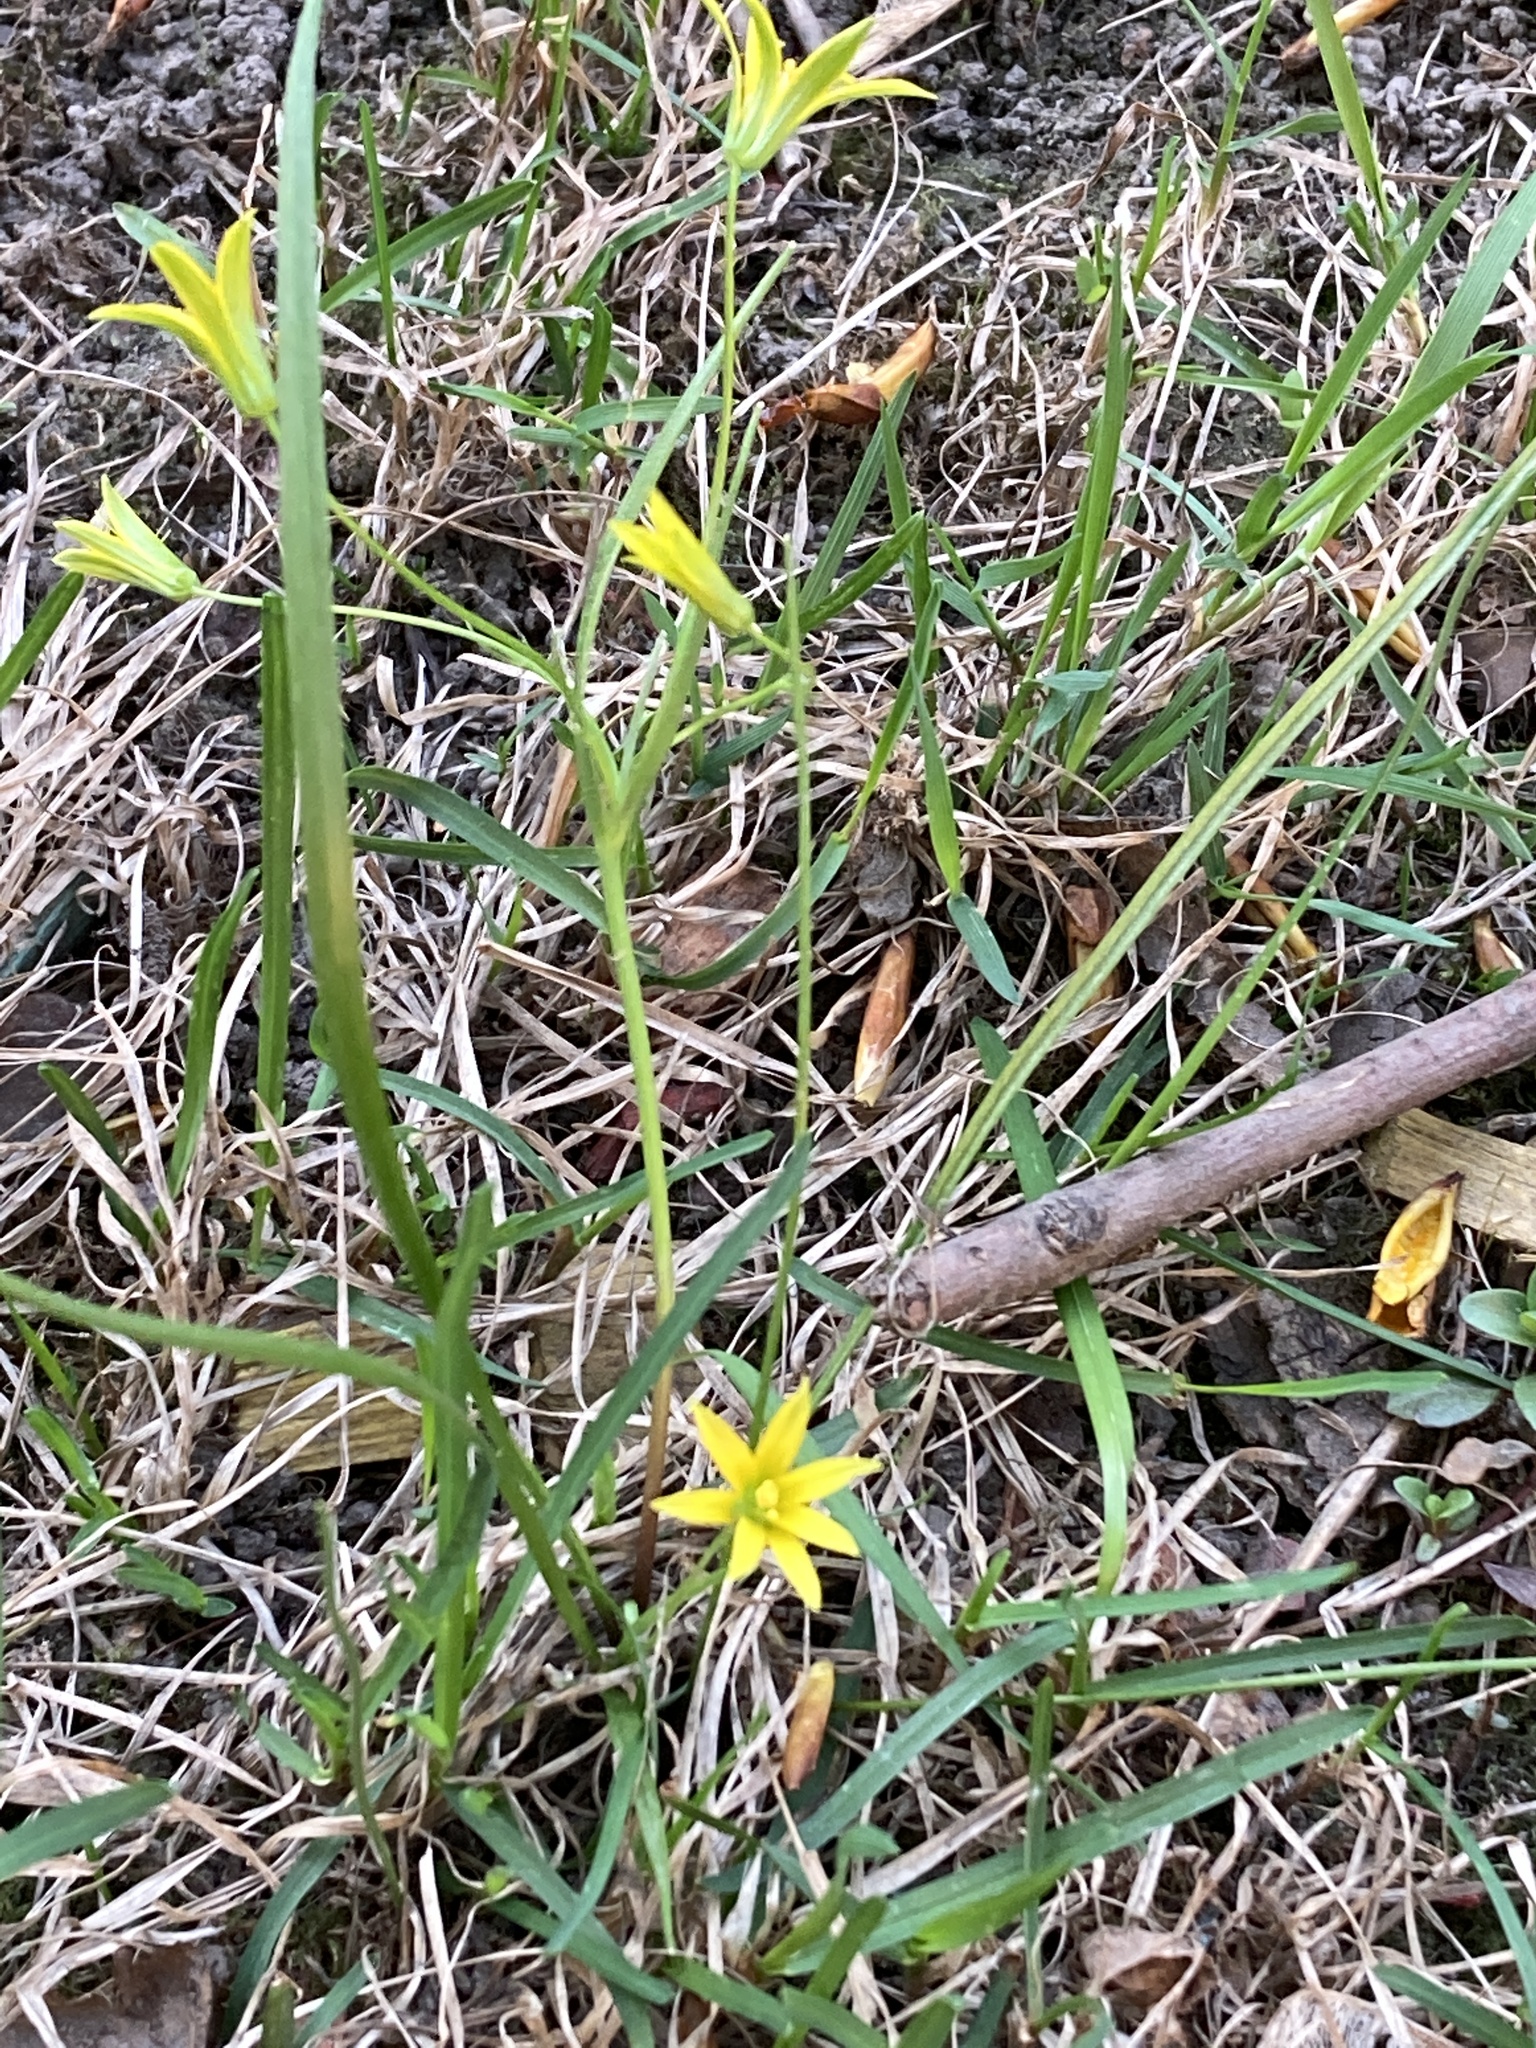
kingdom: Plantae
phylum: Tracheophyta
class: Liliopsida
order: Liliales
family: Liliaceae
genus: Gagea
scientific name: Gagea minima
